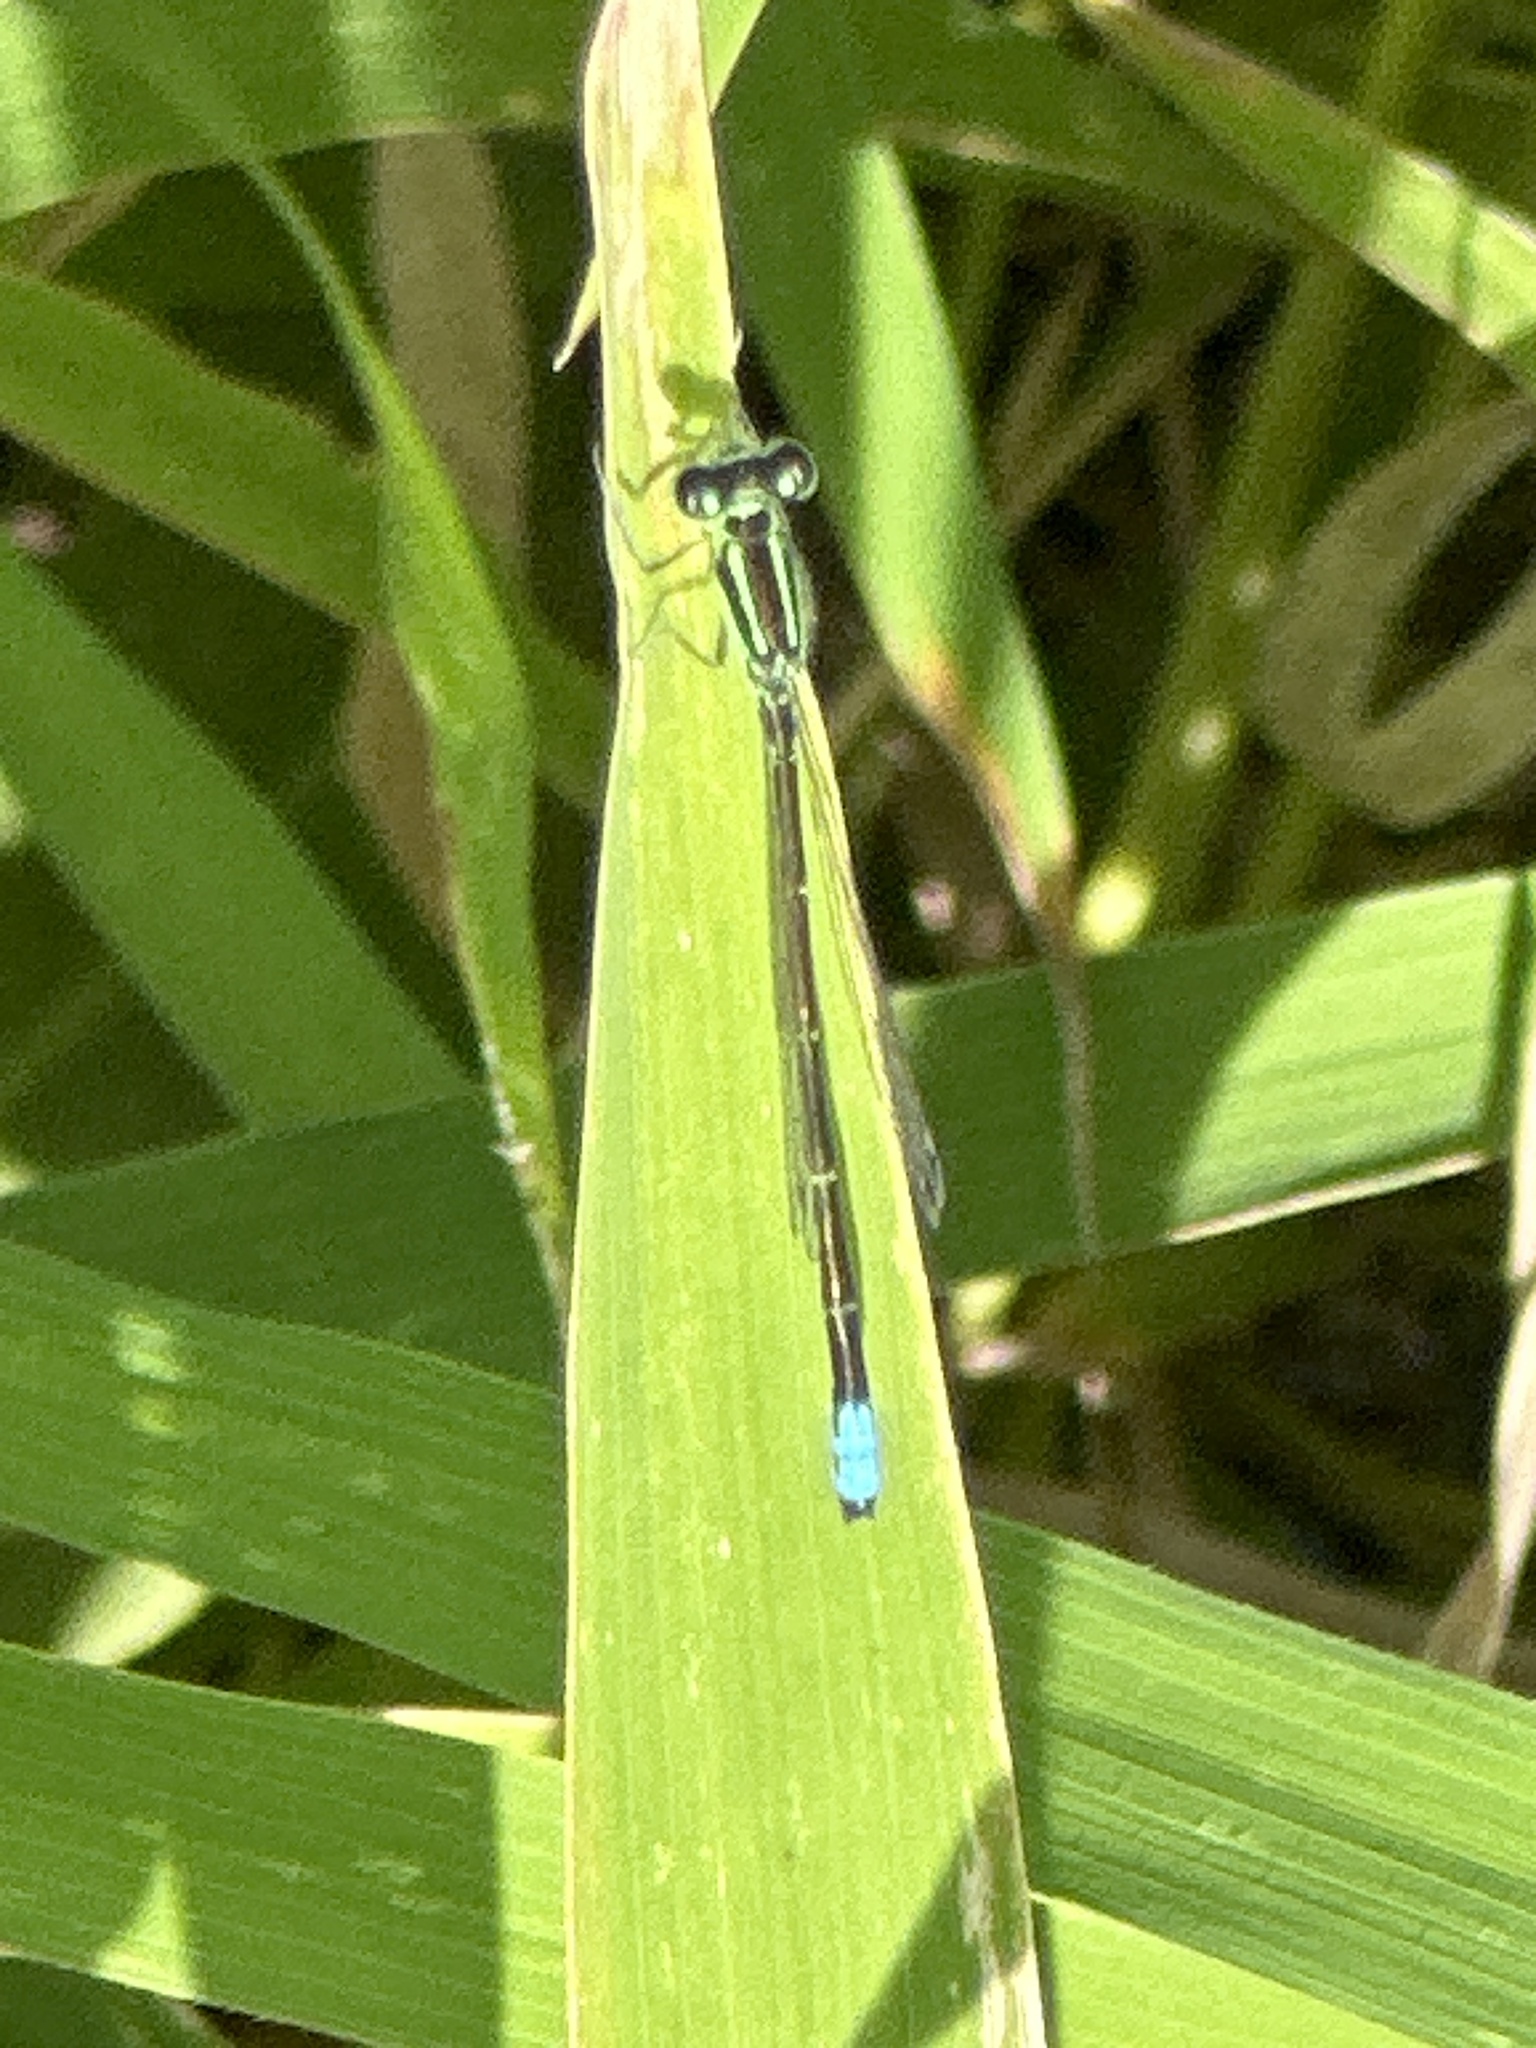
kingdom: Animalia
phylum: Arthropoda
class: Insecta
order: Odonata
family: Coenagrionidae
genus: Ischnura
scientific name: Ischnura verticalis
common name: Eastern forktail
